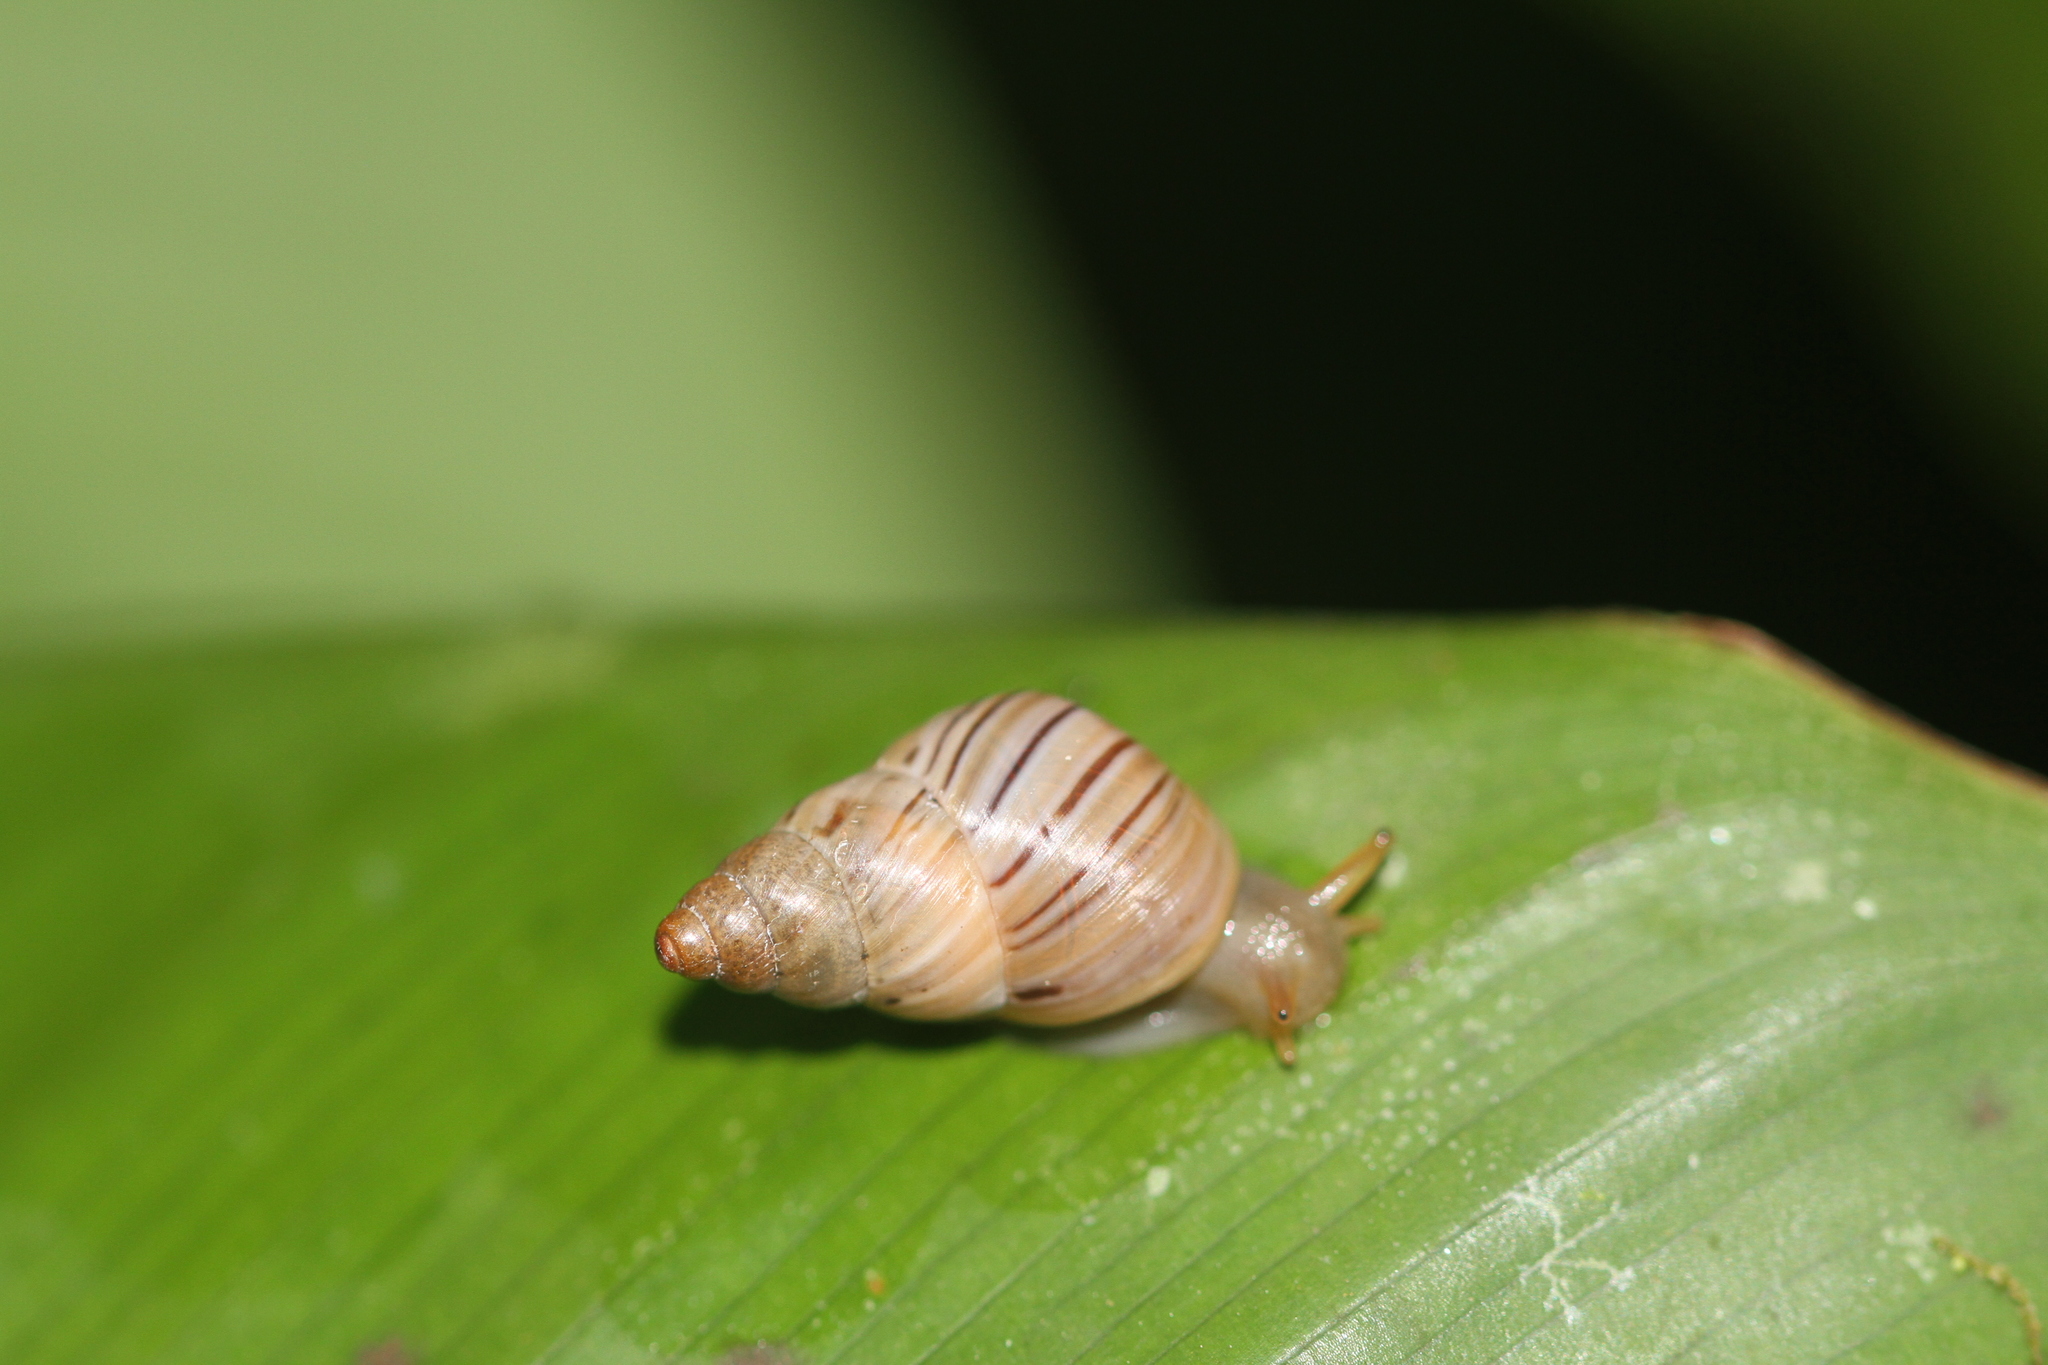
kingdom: Animalia
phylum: Mollusca
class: Gastropoda
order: Stylommatophora
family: Simpulopsidae
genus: Leiostracus
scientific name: Leiostracus demerarensis
